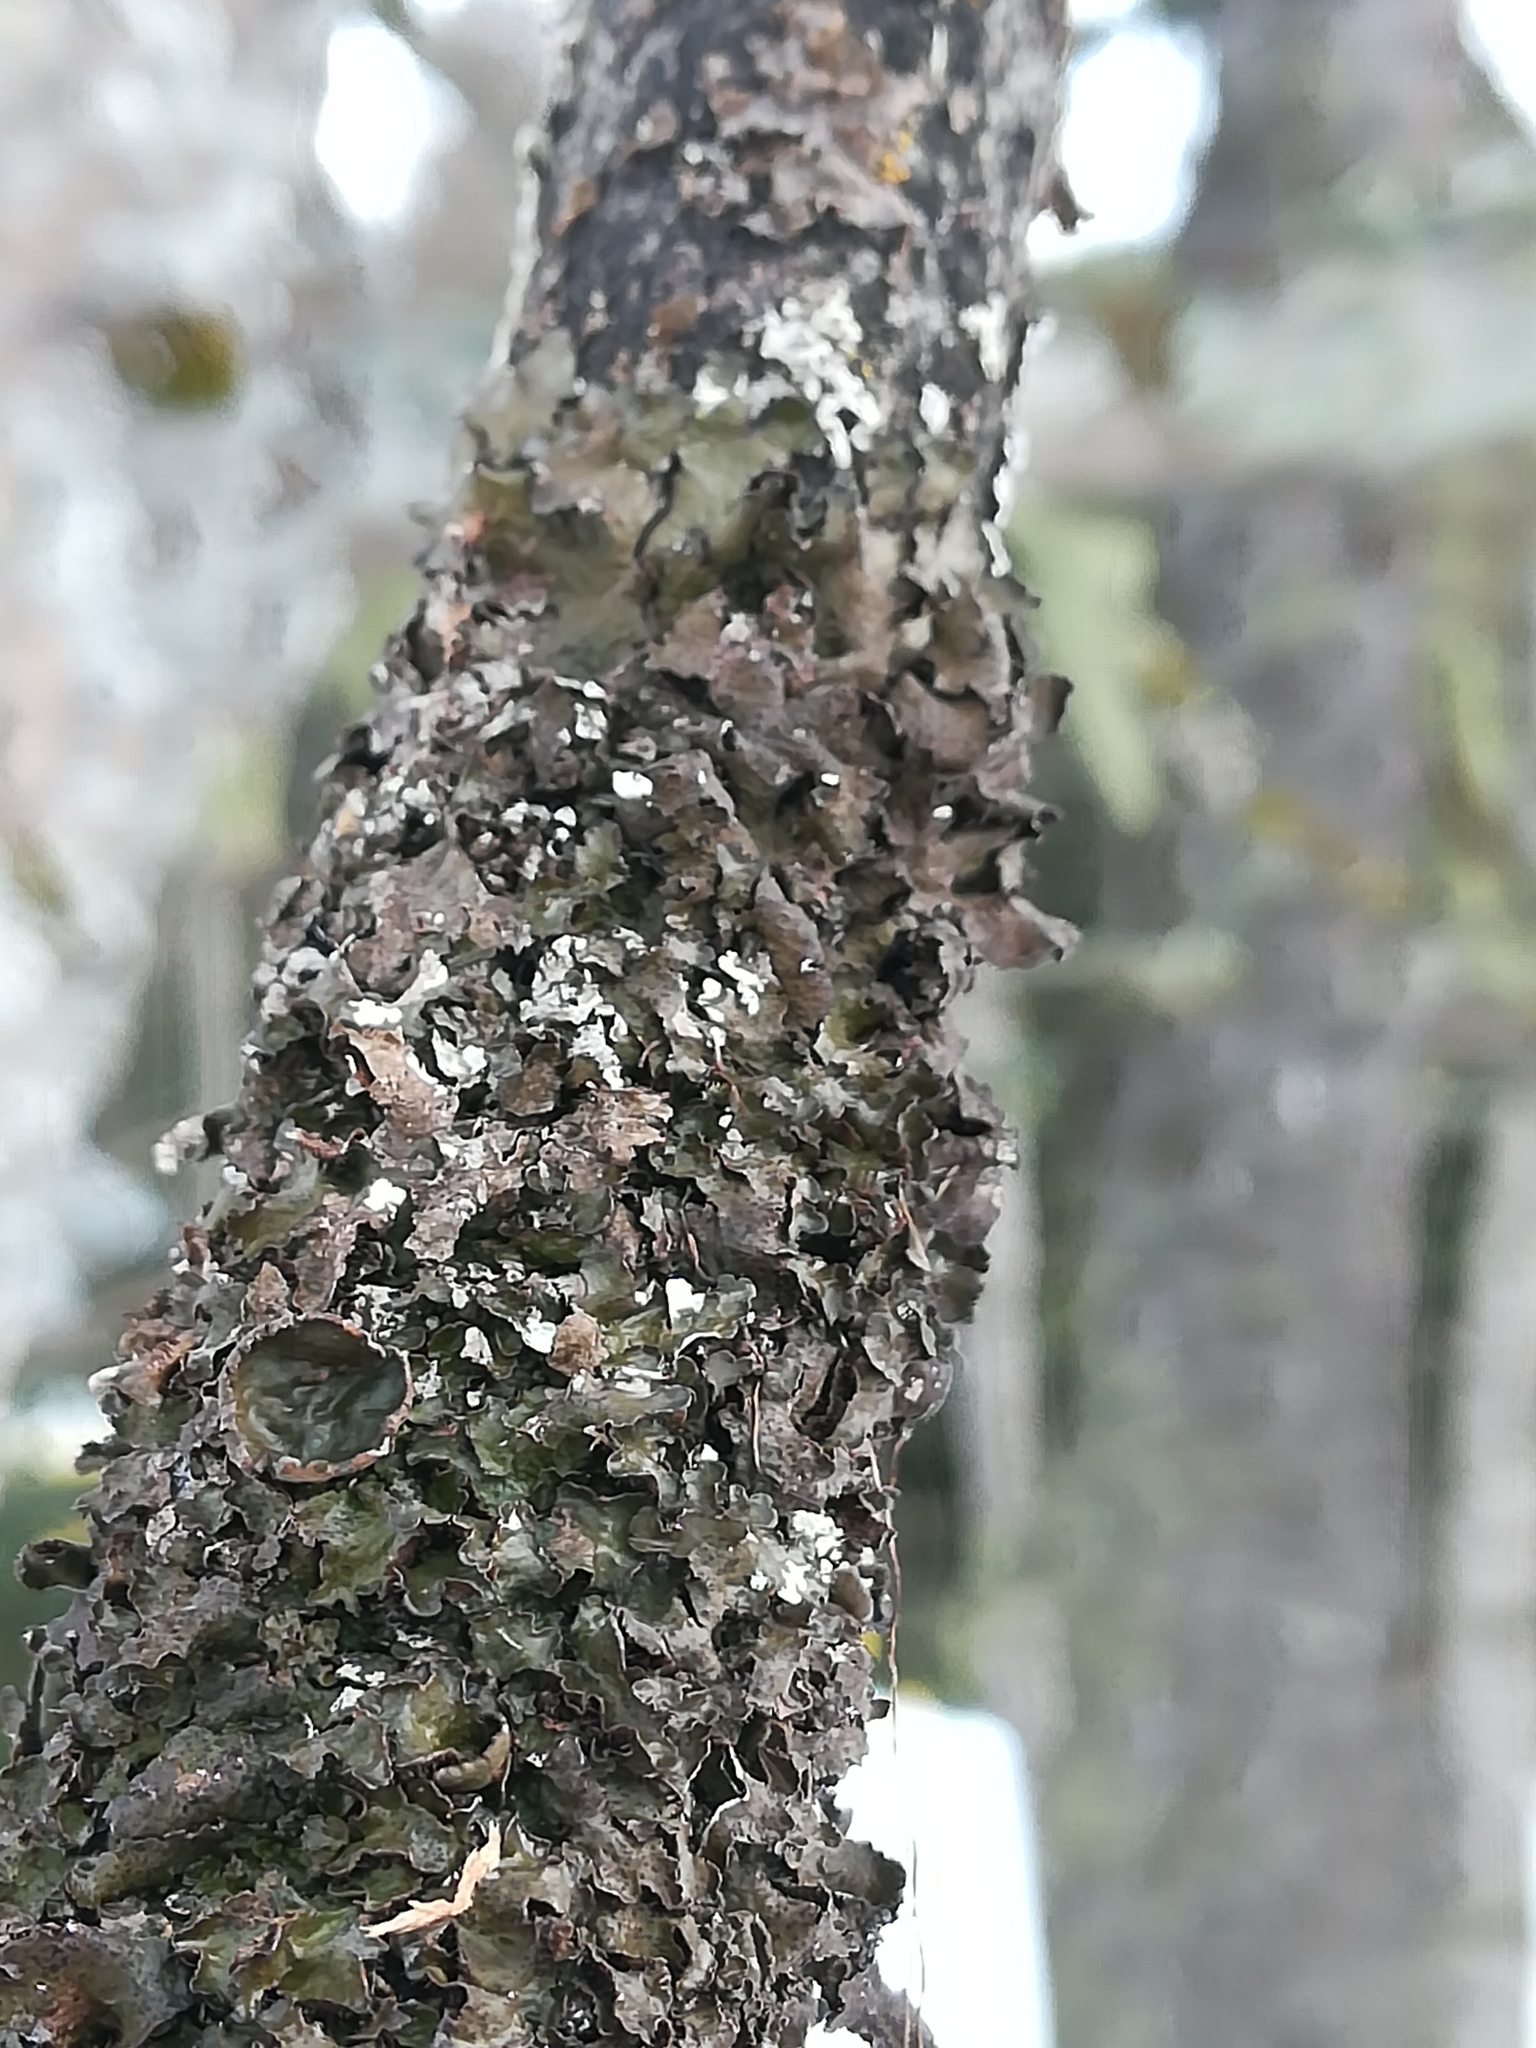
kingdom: Fungi
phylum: Ascomycota
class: Lecanoromycetes
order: Lecanorales
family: Parmeliaceae
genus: Pleurosticta
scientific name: Pleurosticta acetabulum
